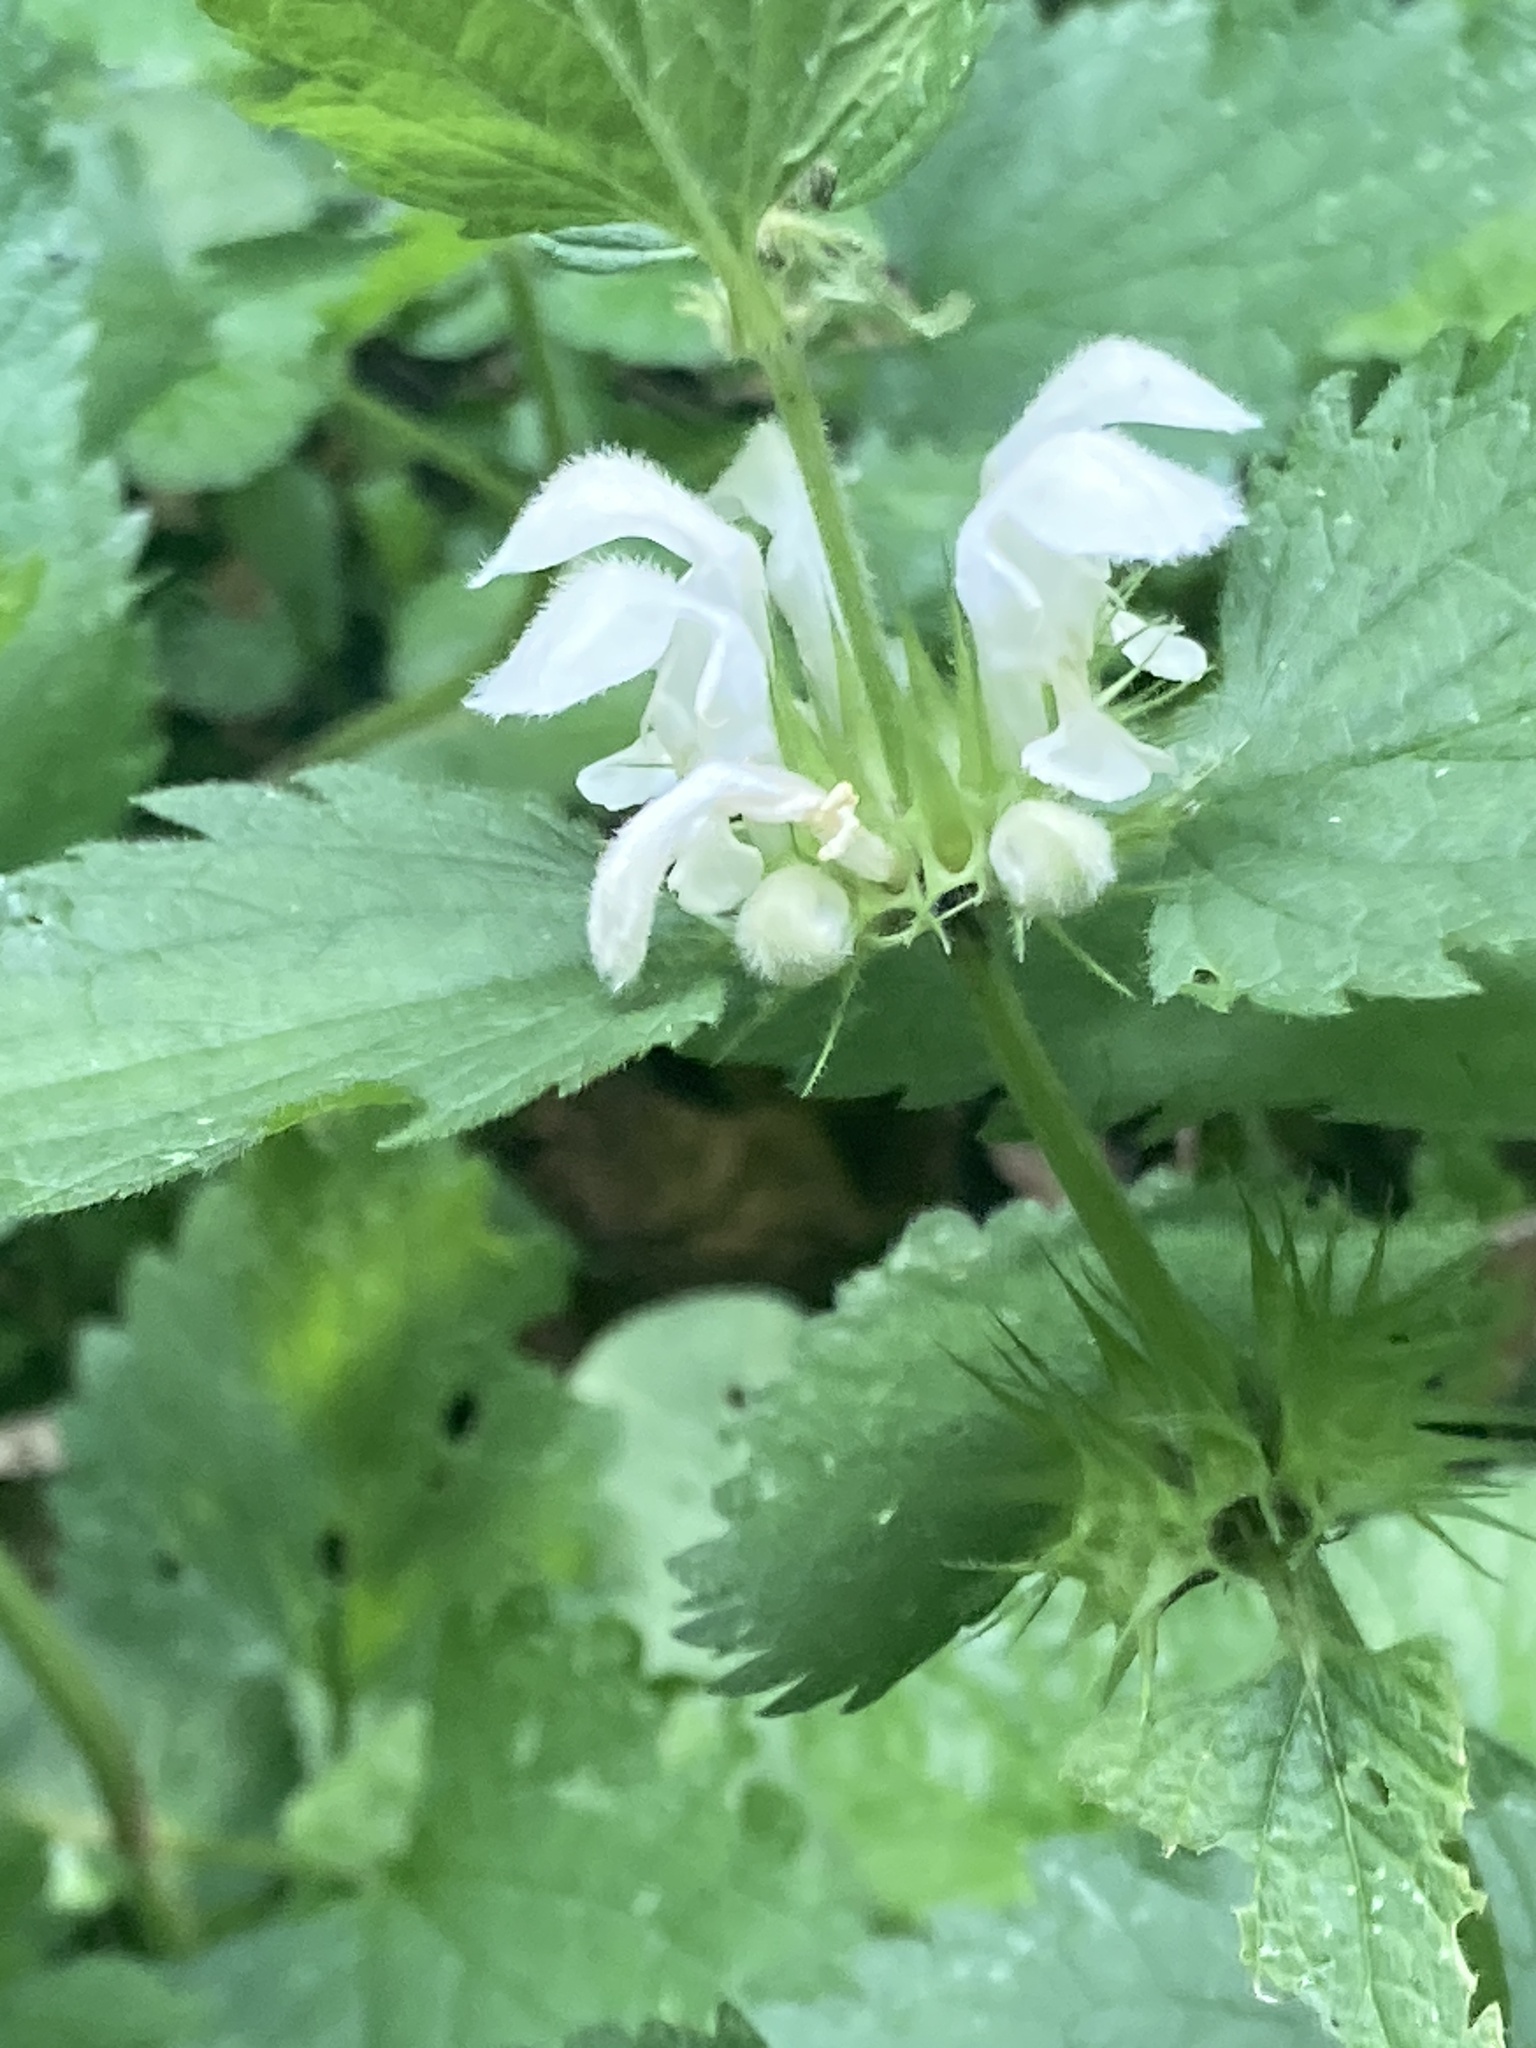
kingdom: Plantae
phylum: Tracheophyta
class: Magnoliopsida
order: Lamiales
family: Lamiaceae
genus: Lamium
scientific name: Lamium album
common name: White dead-nettle
